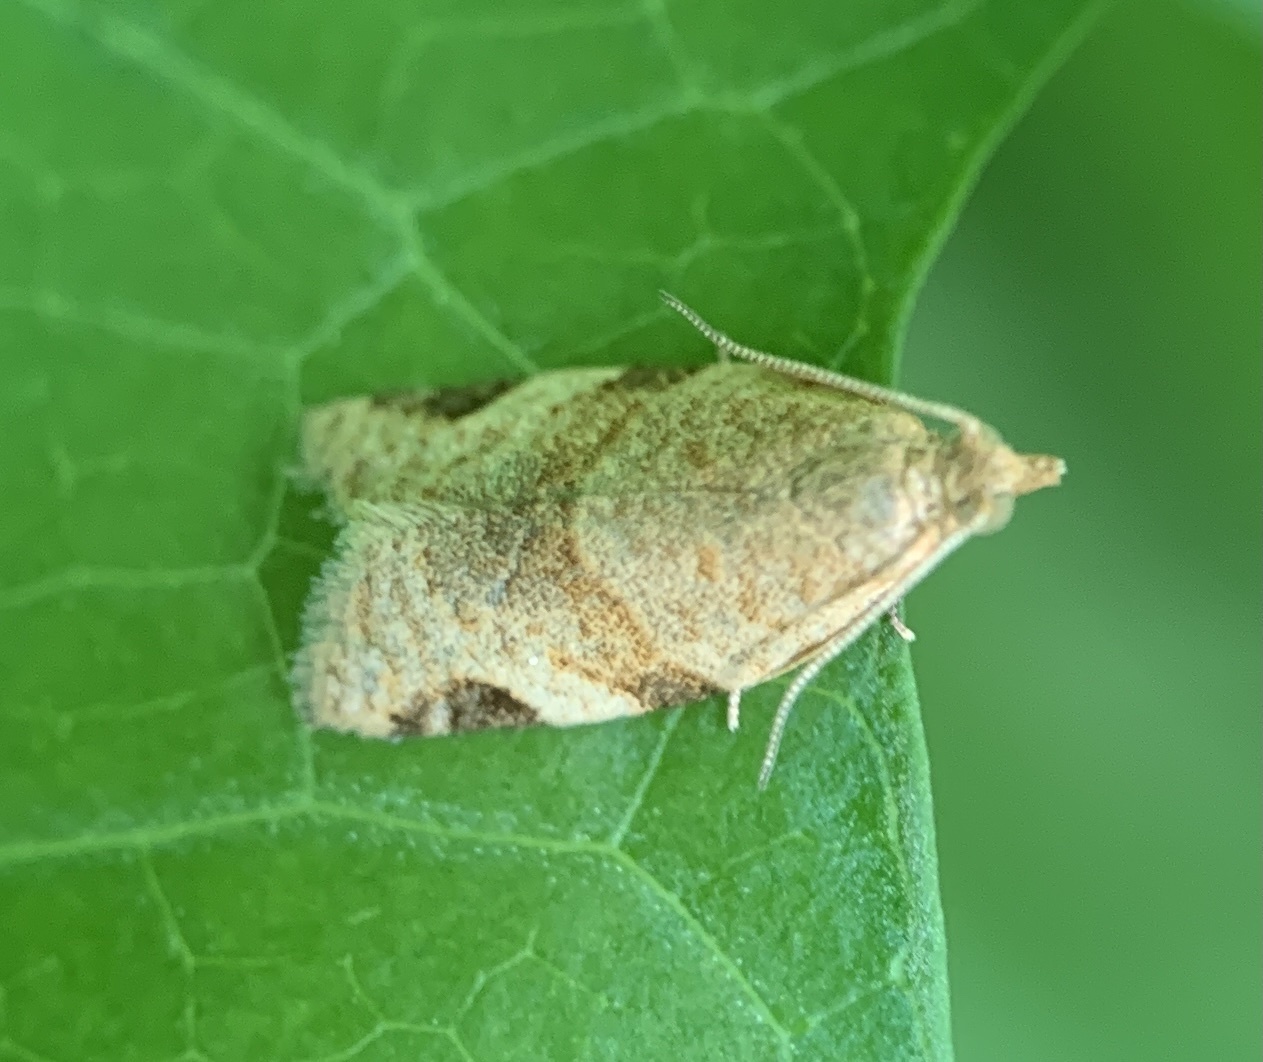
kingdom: Animalia
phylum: Arthropoda
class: Insecta
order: Lepidoptera
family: Tortricidae
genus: Clepsis
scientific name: Clepsis virescana
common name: Greenish apple moth
